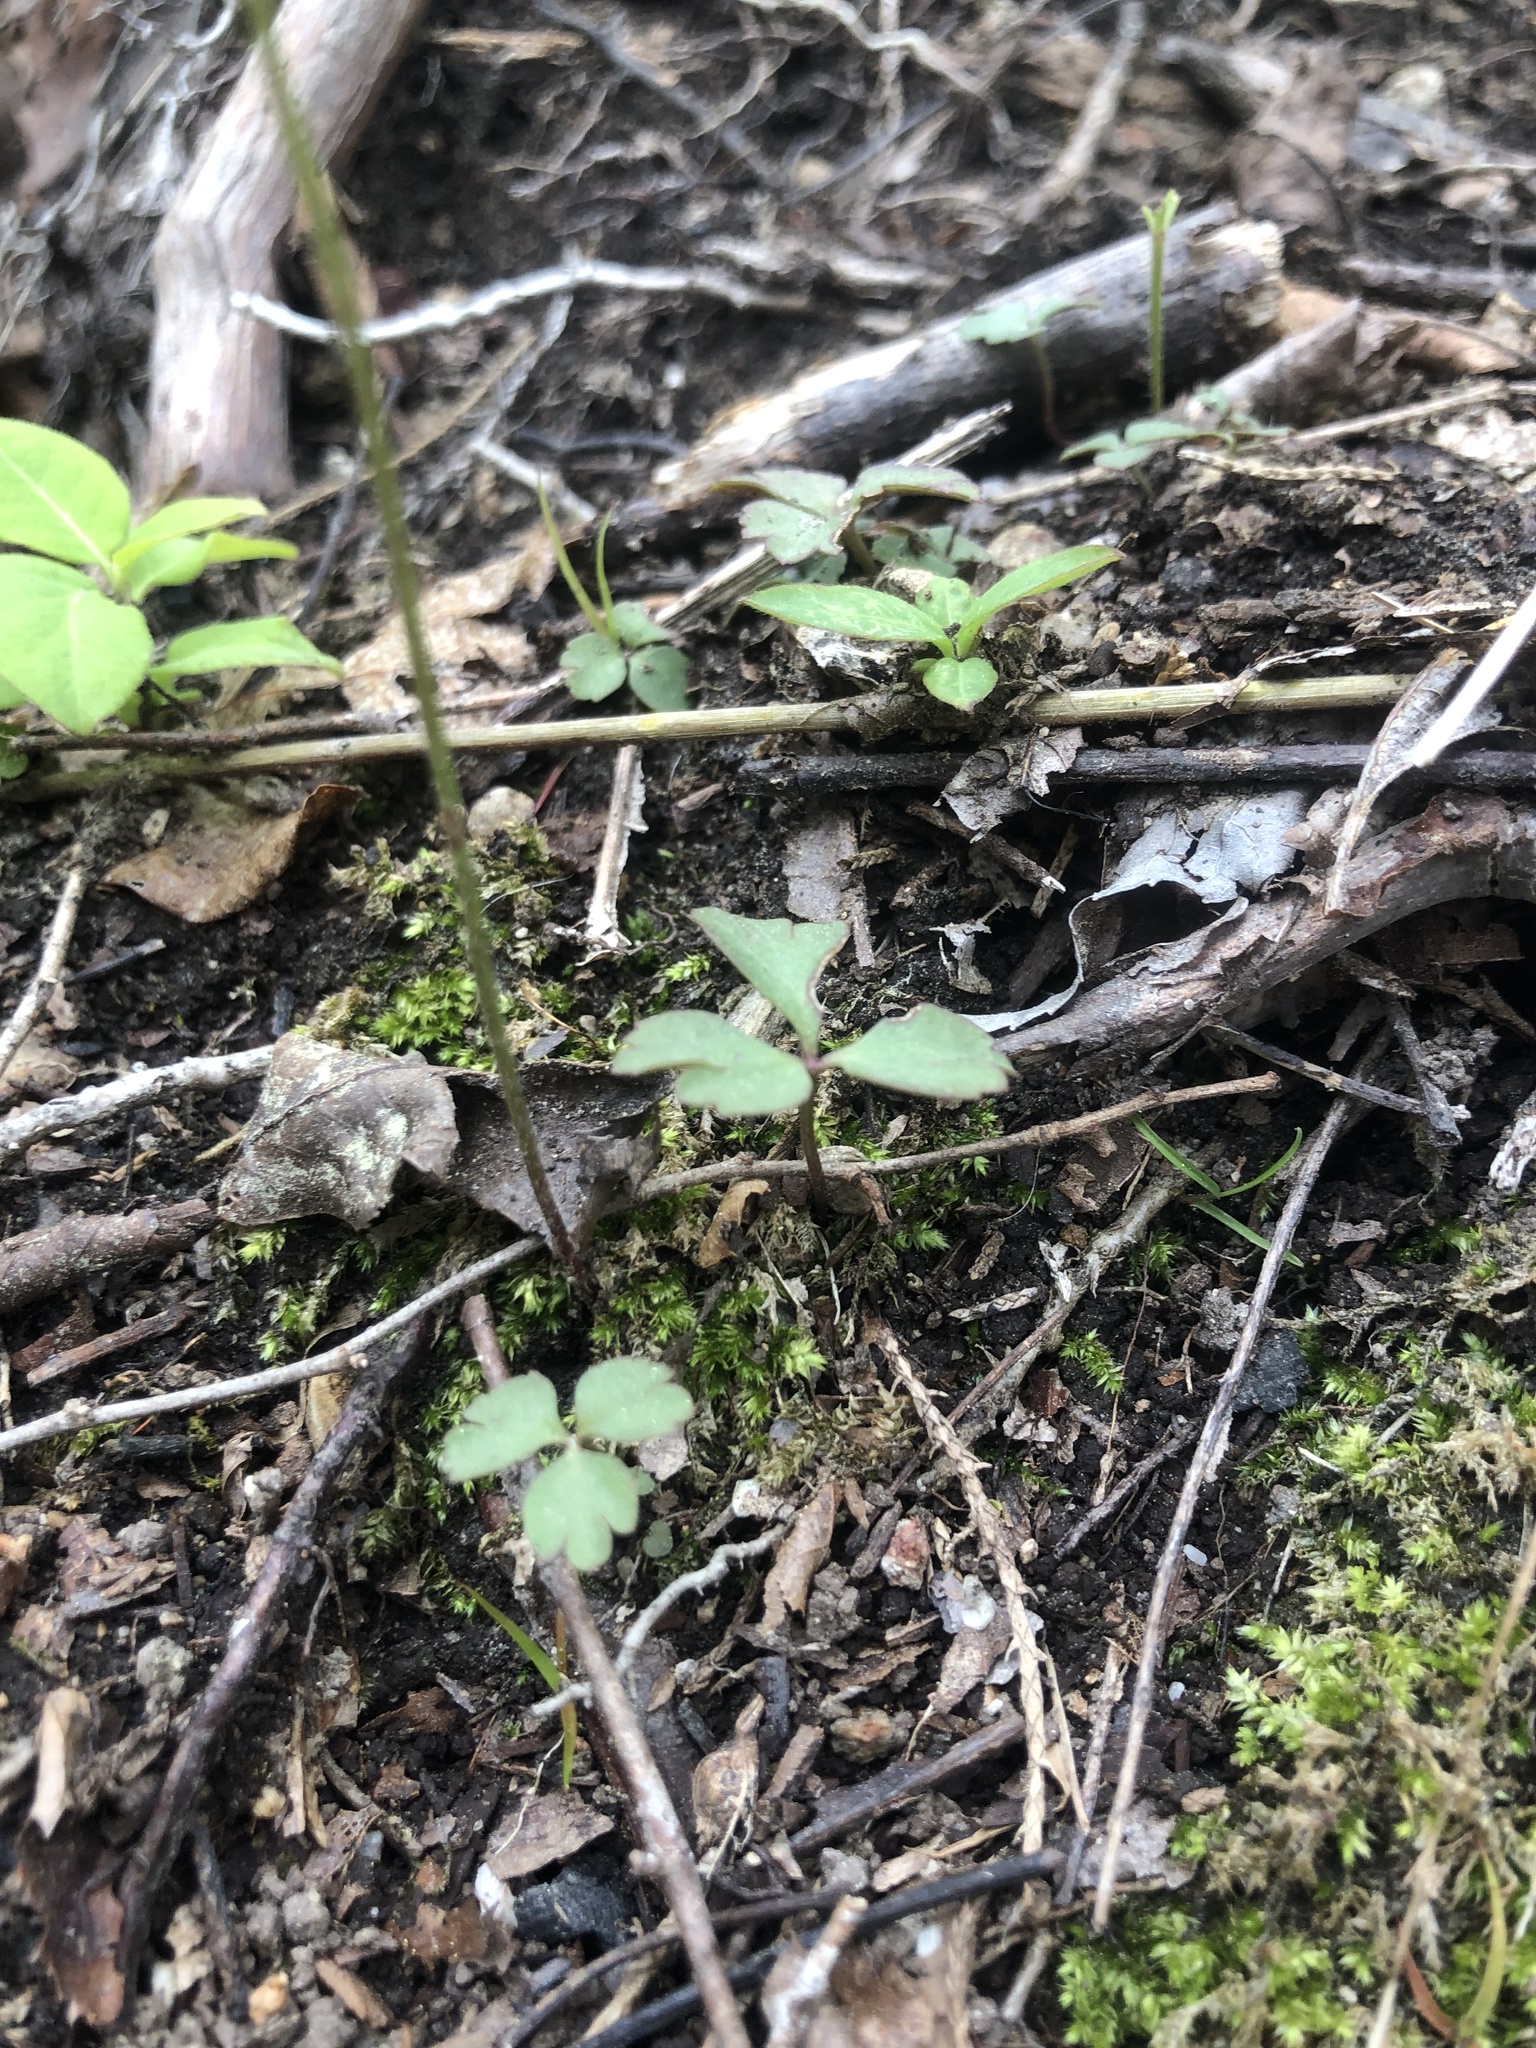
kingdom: Plantae
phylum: Tracheophyta
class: Magnoliopsida
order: Ranunculales
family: Ranunculaceae
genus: Anemone
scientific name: Anemone berlandieri
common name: Ten-petal anemone
